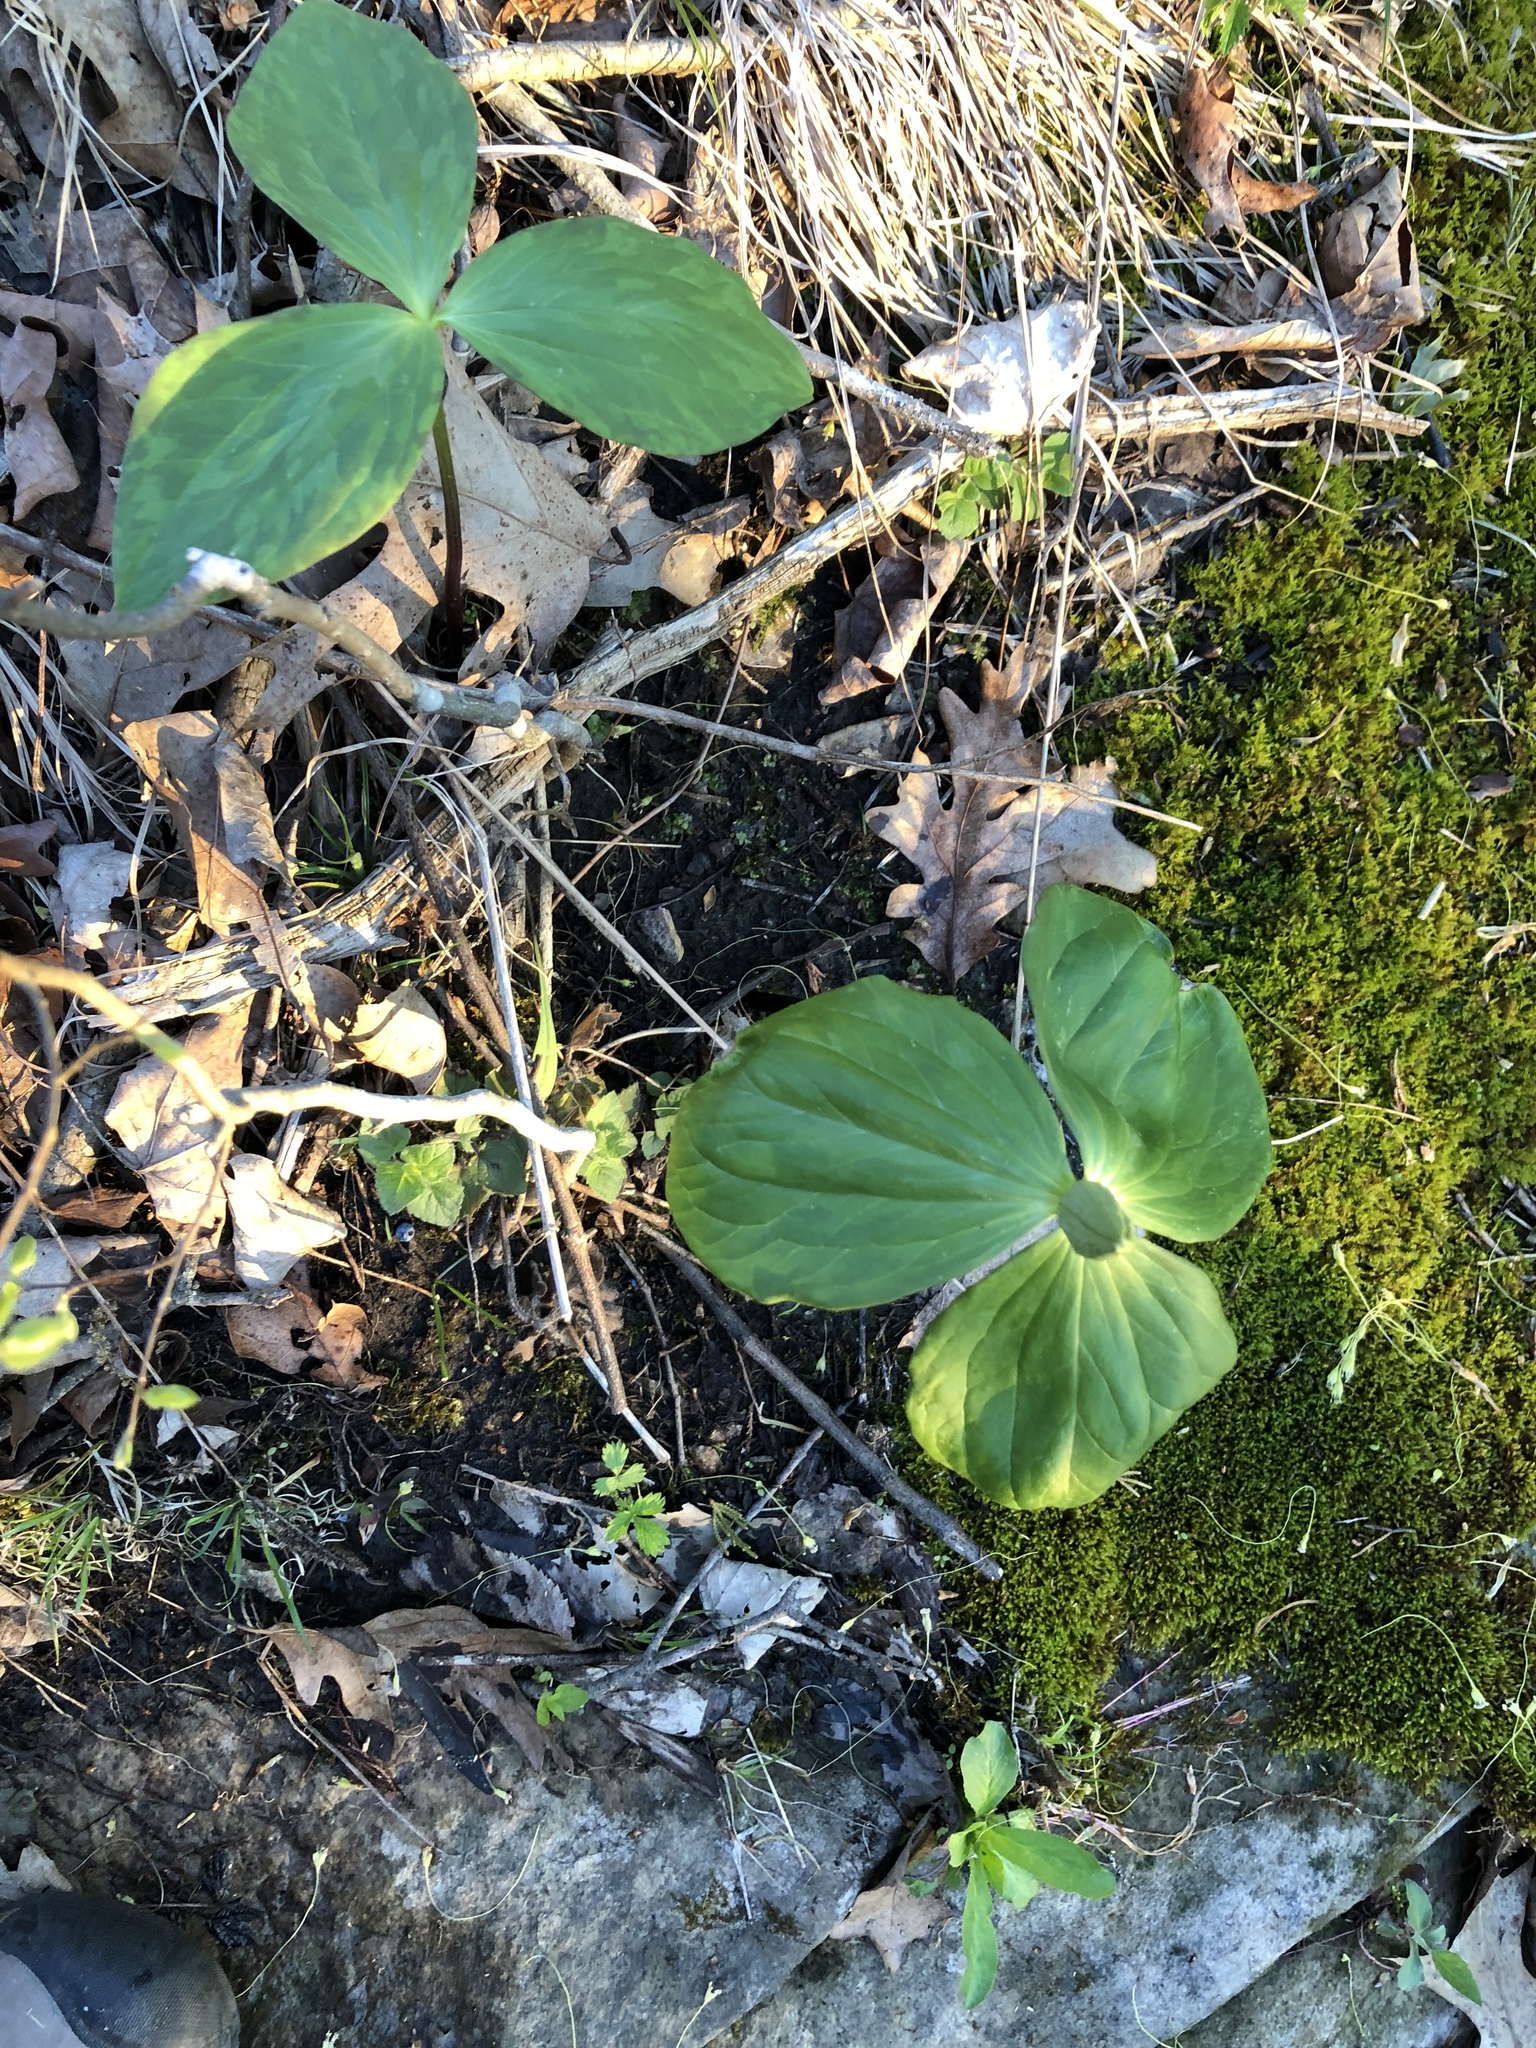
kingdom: Plantae
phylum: Tracheophyta
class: Liliopsida
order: Liliales
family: Melanthiaceae
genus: Trillium
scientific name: Trillium viride
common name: Green trillium
